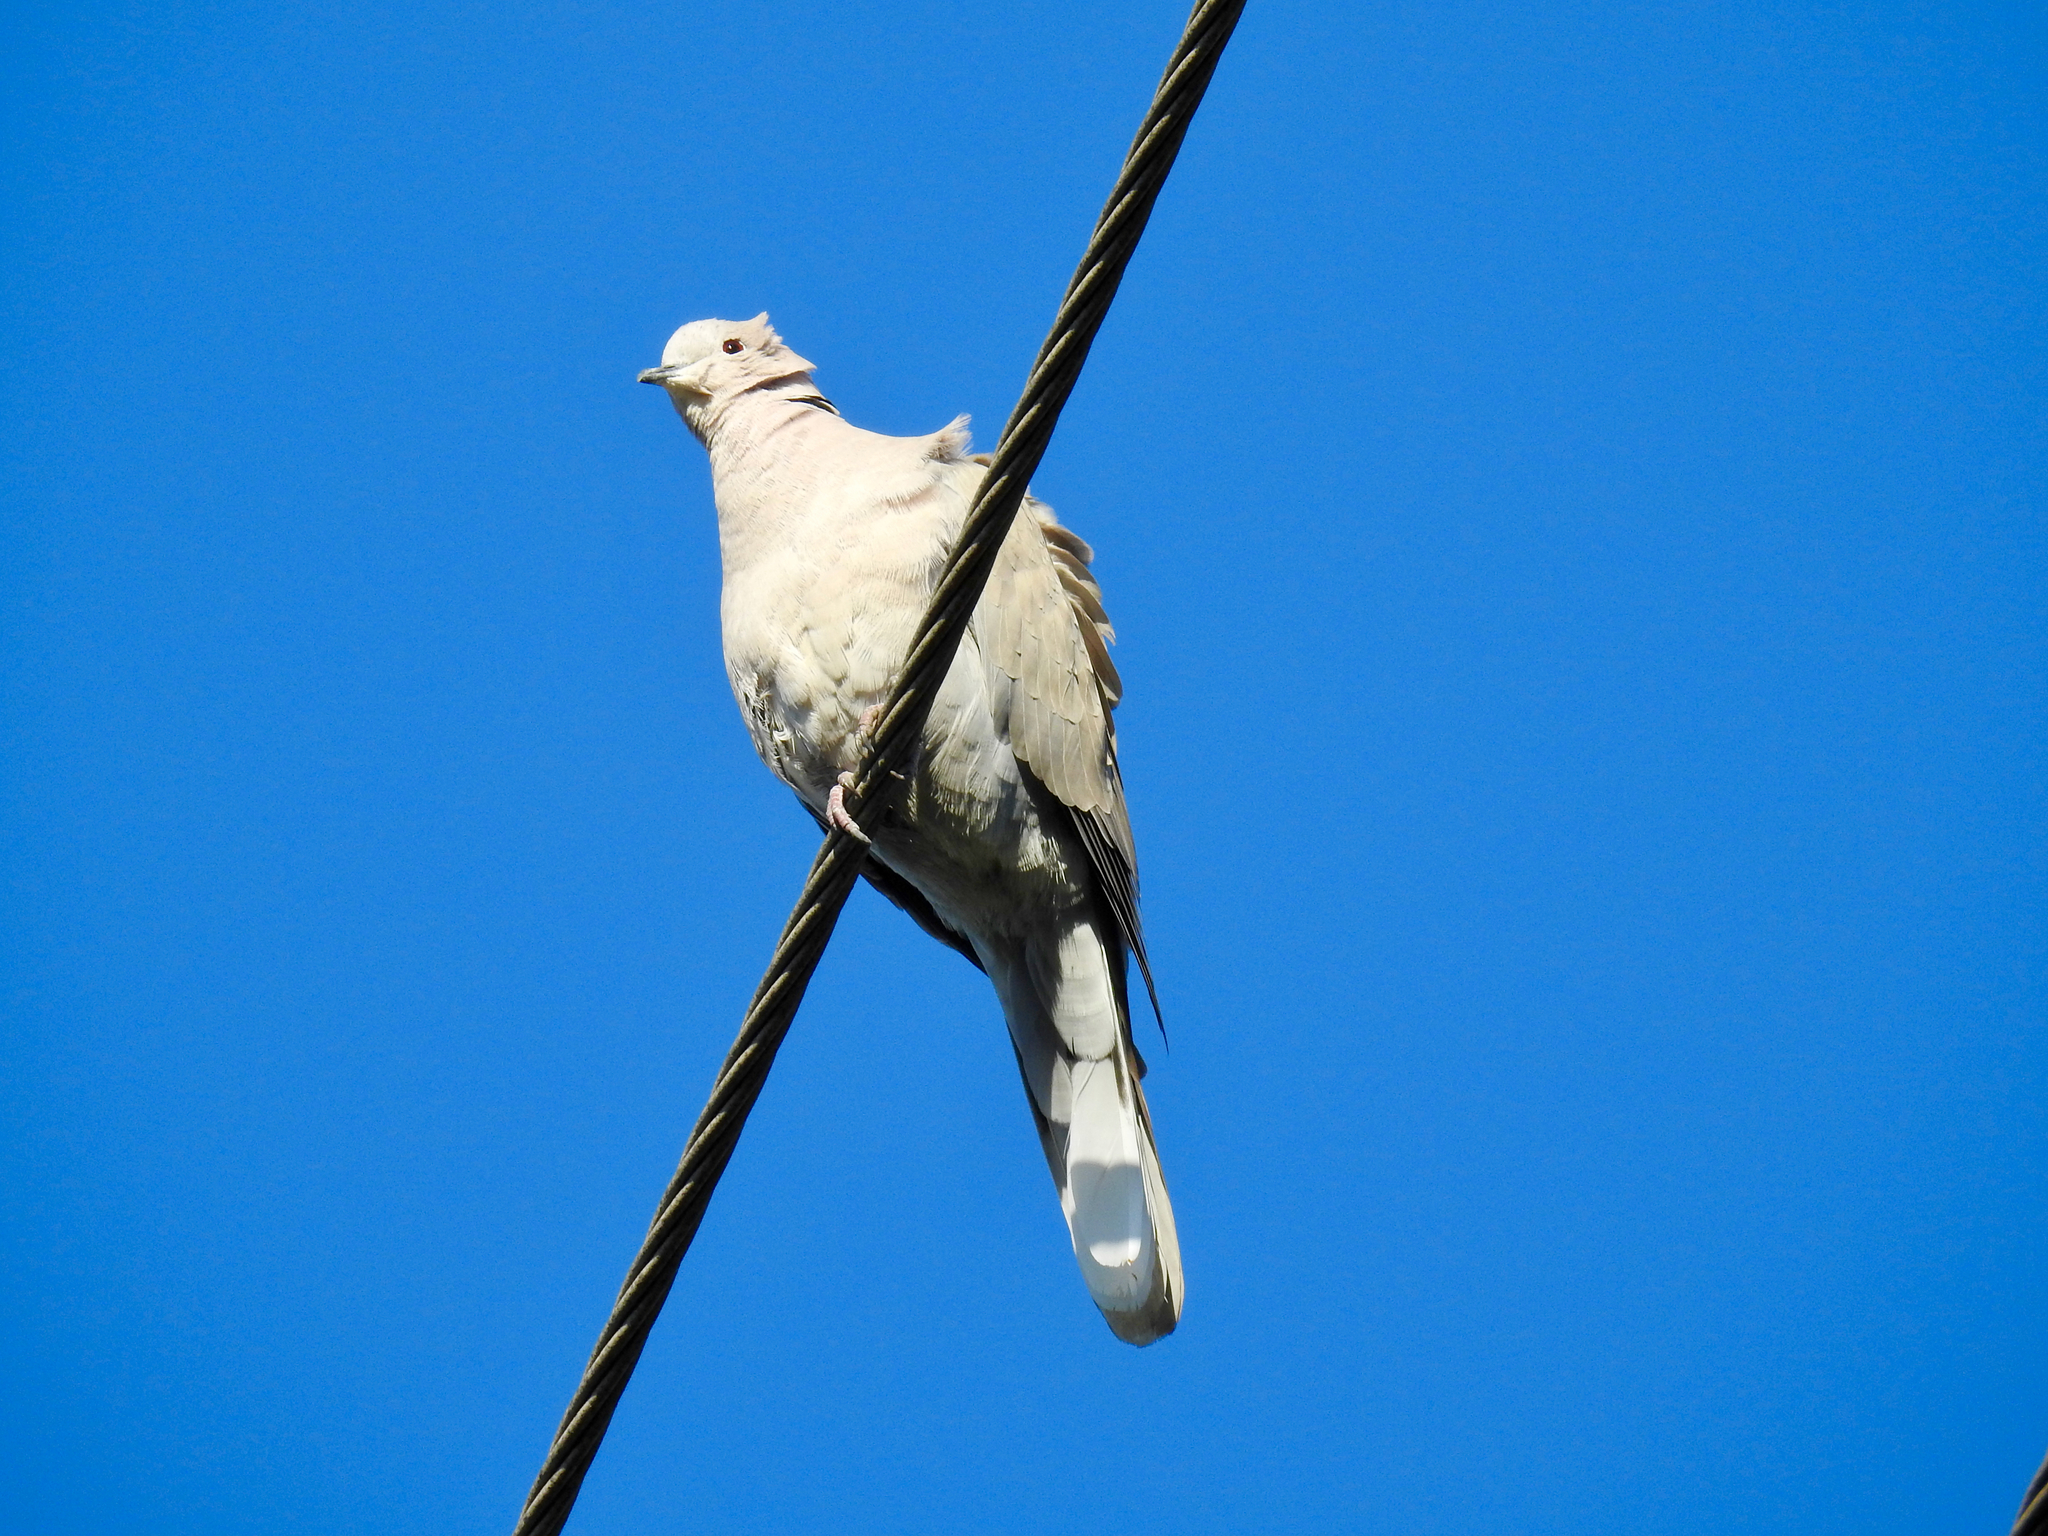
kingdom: Animalia
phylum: Chordata
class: Aves
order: Columbiformes
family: Columbidae
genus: Streptopelia
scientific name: Streptopelia decaocto
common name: Eurasian collared dove
